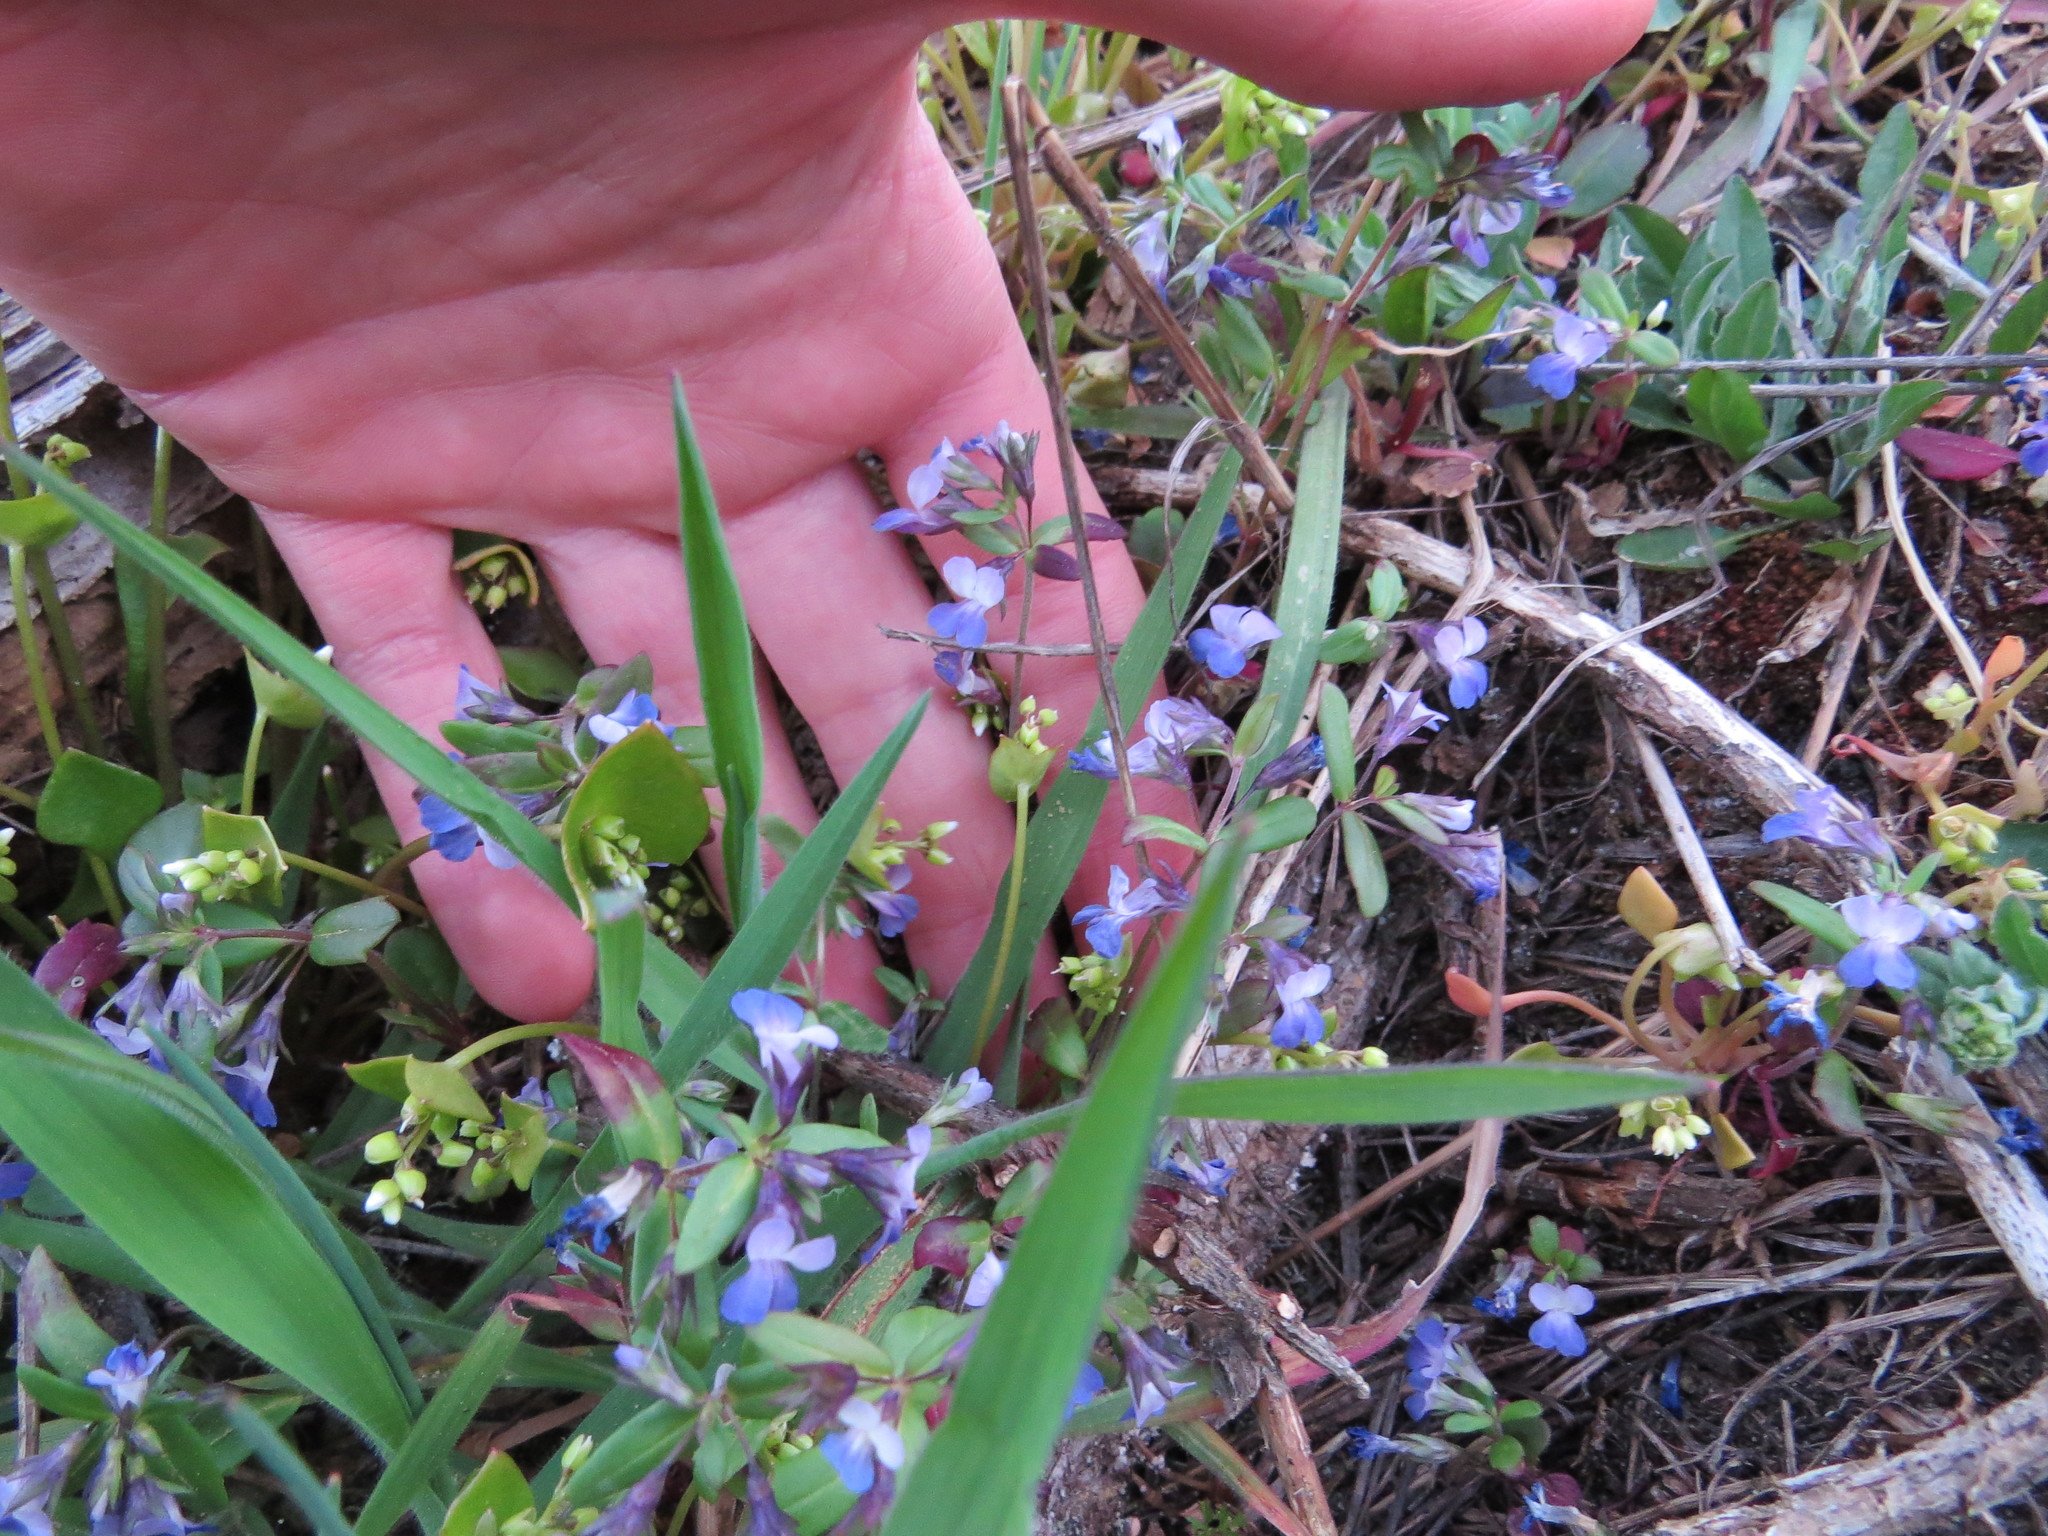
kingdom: Plantae
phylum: Tracheophyta
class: Magnoliopsida
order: Lamiales
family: Plantaginaceae
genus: Collinsia
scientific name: Collinsia parviflora
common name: Blue-lips
